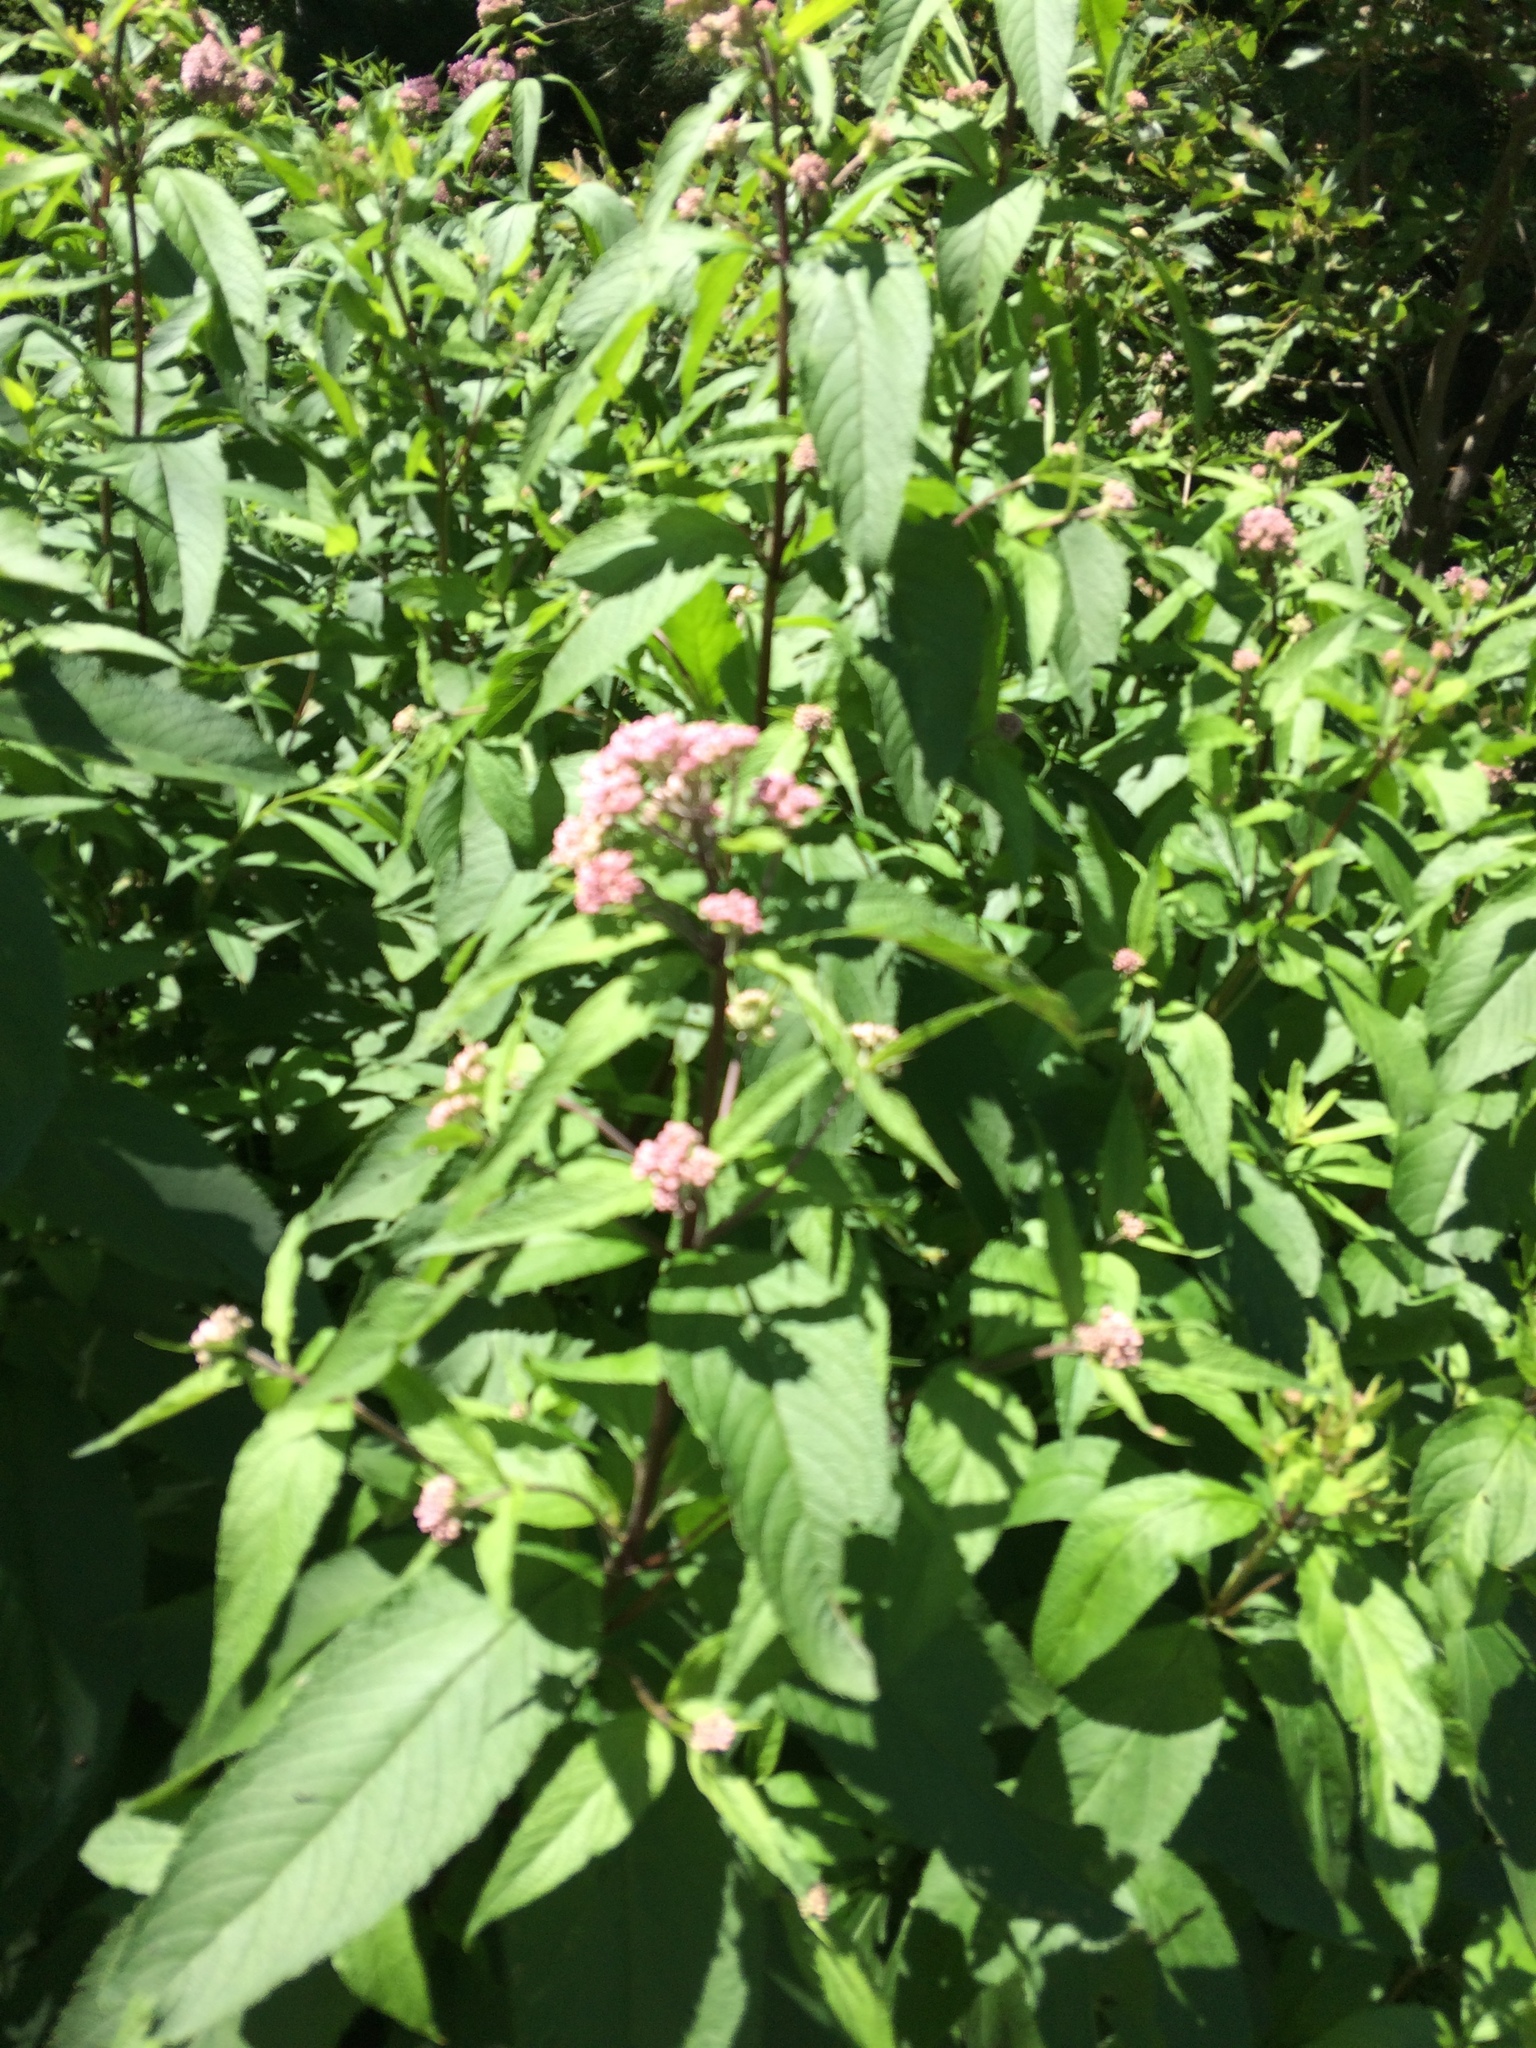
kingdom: Plantae
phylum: Tracheophyta
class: Magnoliopsida
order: Asterales
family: Asteraceae
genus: Eutrochium
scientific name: Eutrochium maculatum
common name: Spotted joe pye weed
